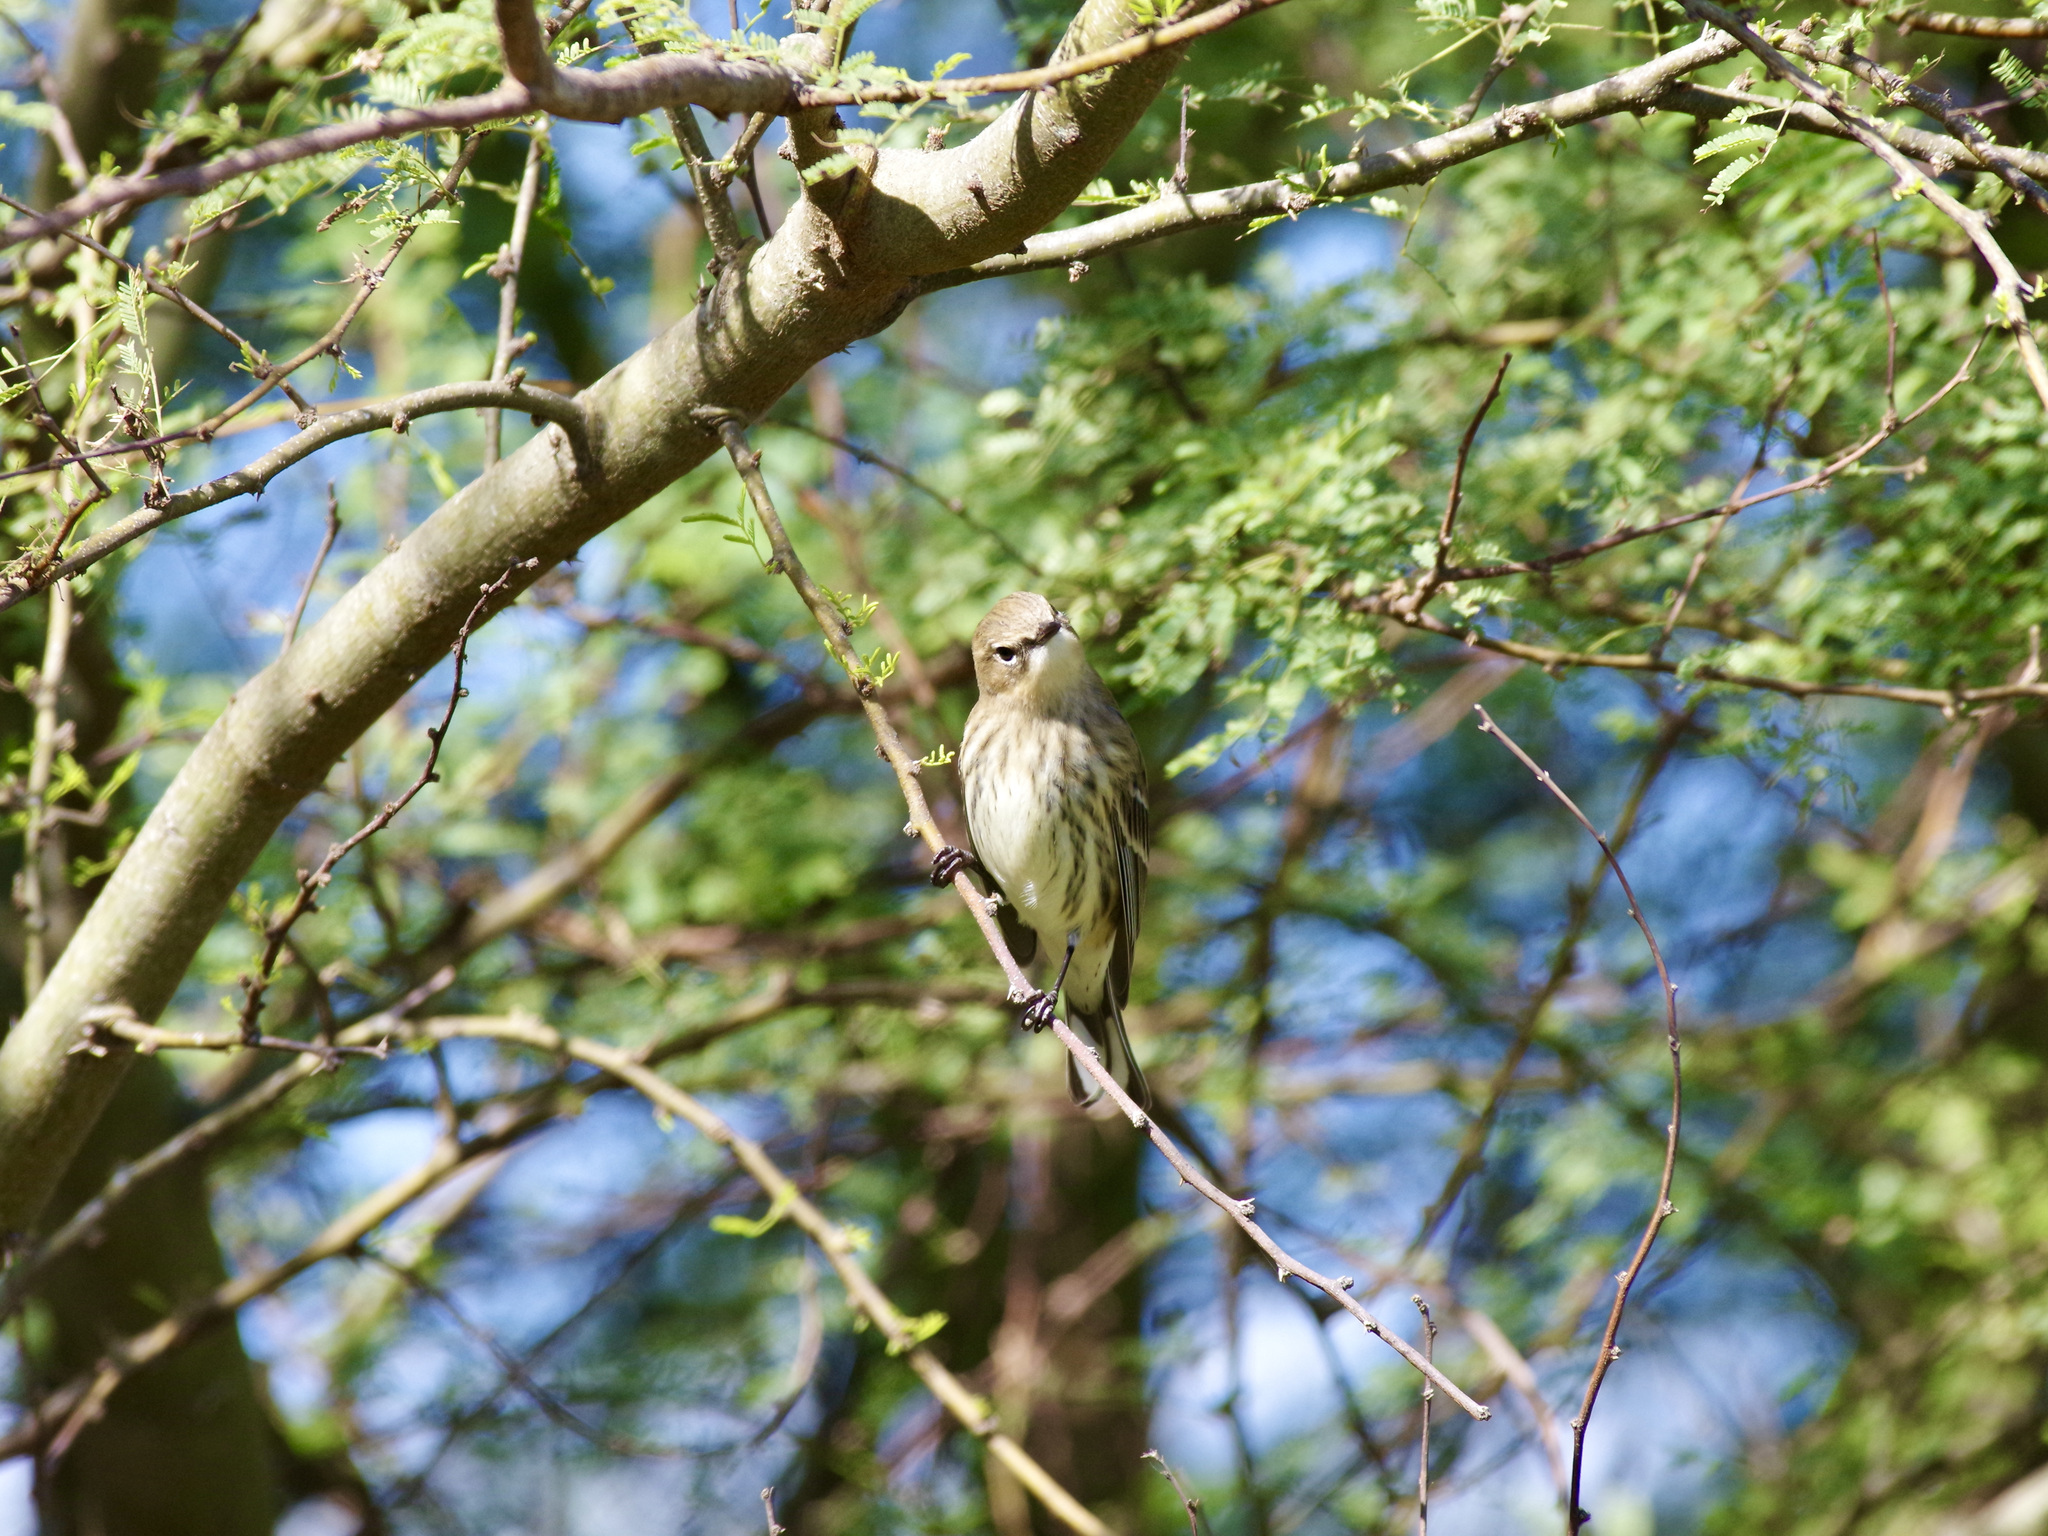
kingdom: Animalia
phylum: Chordata
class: Aves
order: Passeriformes
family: Parulidae
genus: Setophaga
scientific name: Setophaga coronata
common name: Myrtle warbler
